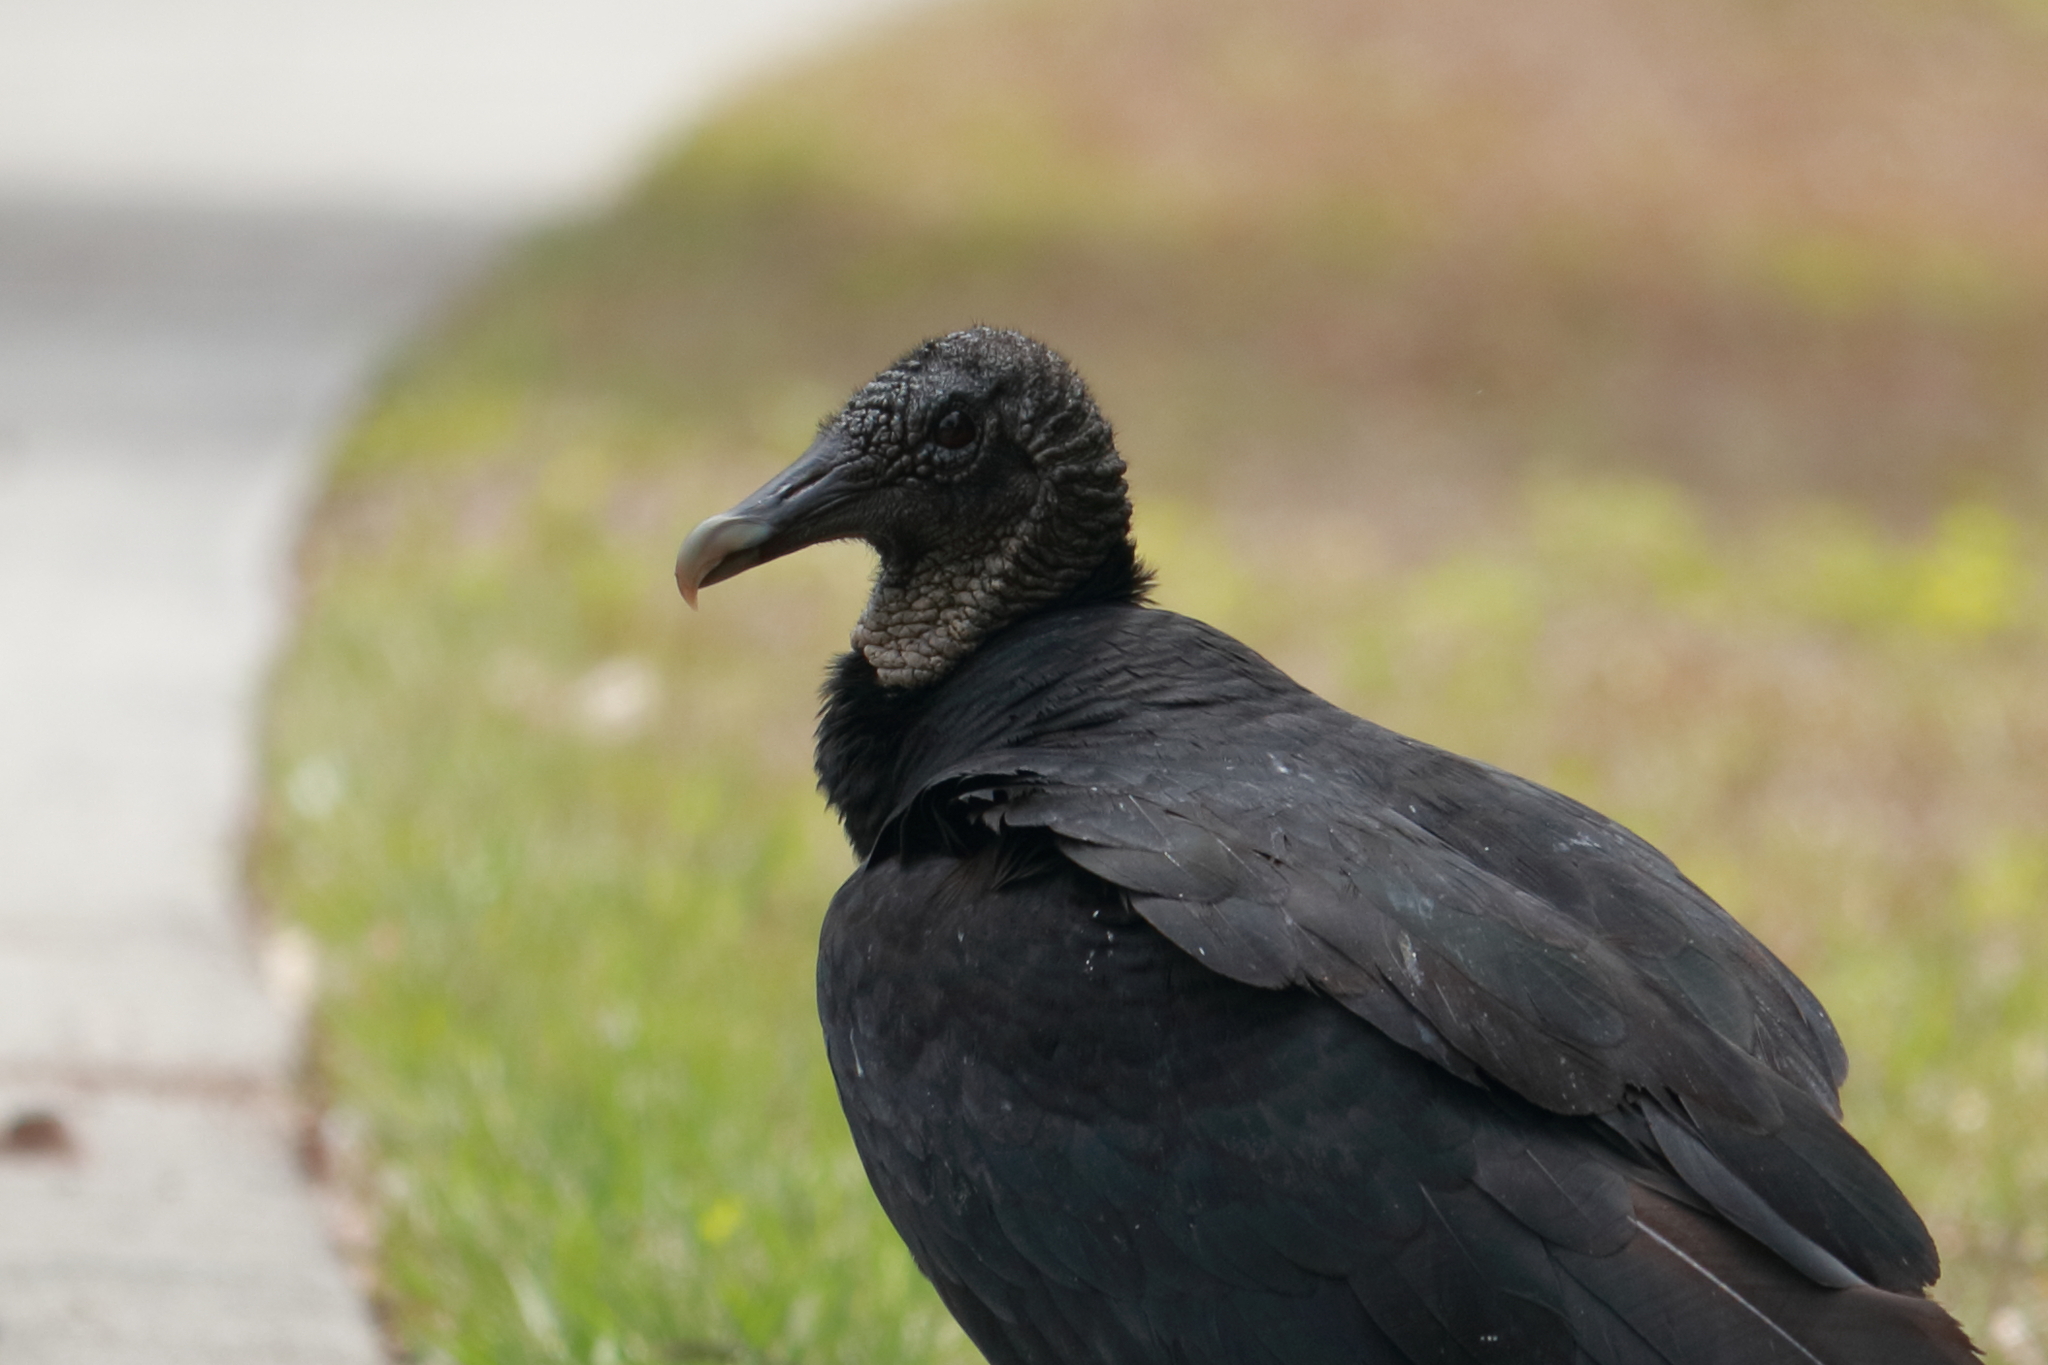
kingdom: Animalia
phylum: Chordata
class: Aves
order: Accipitriformes
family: Cathartidae
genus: Coragyps
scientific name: Coragyps atratus
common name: Black vulture
